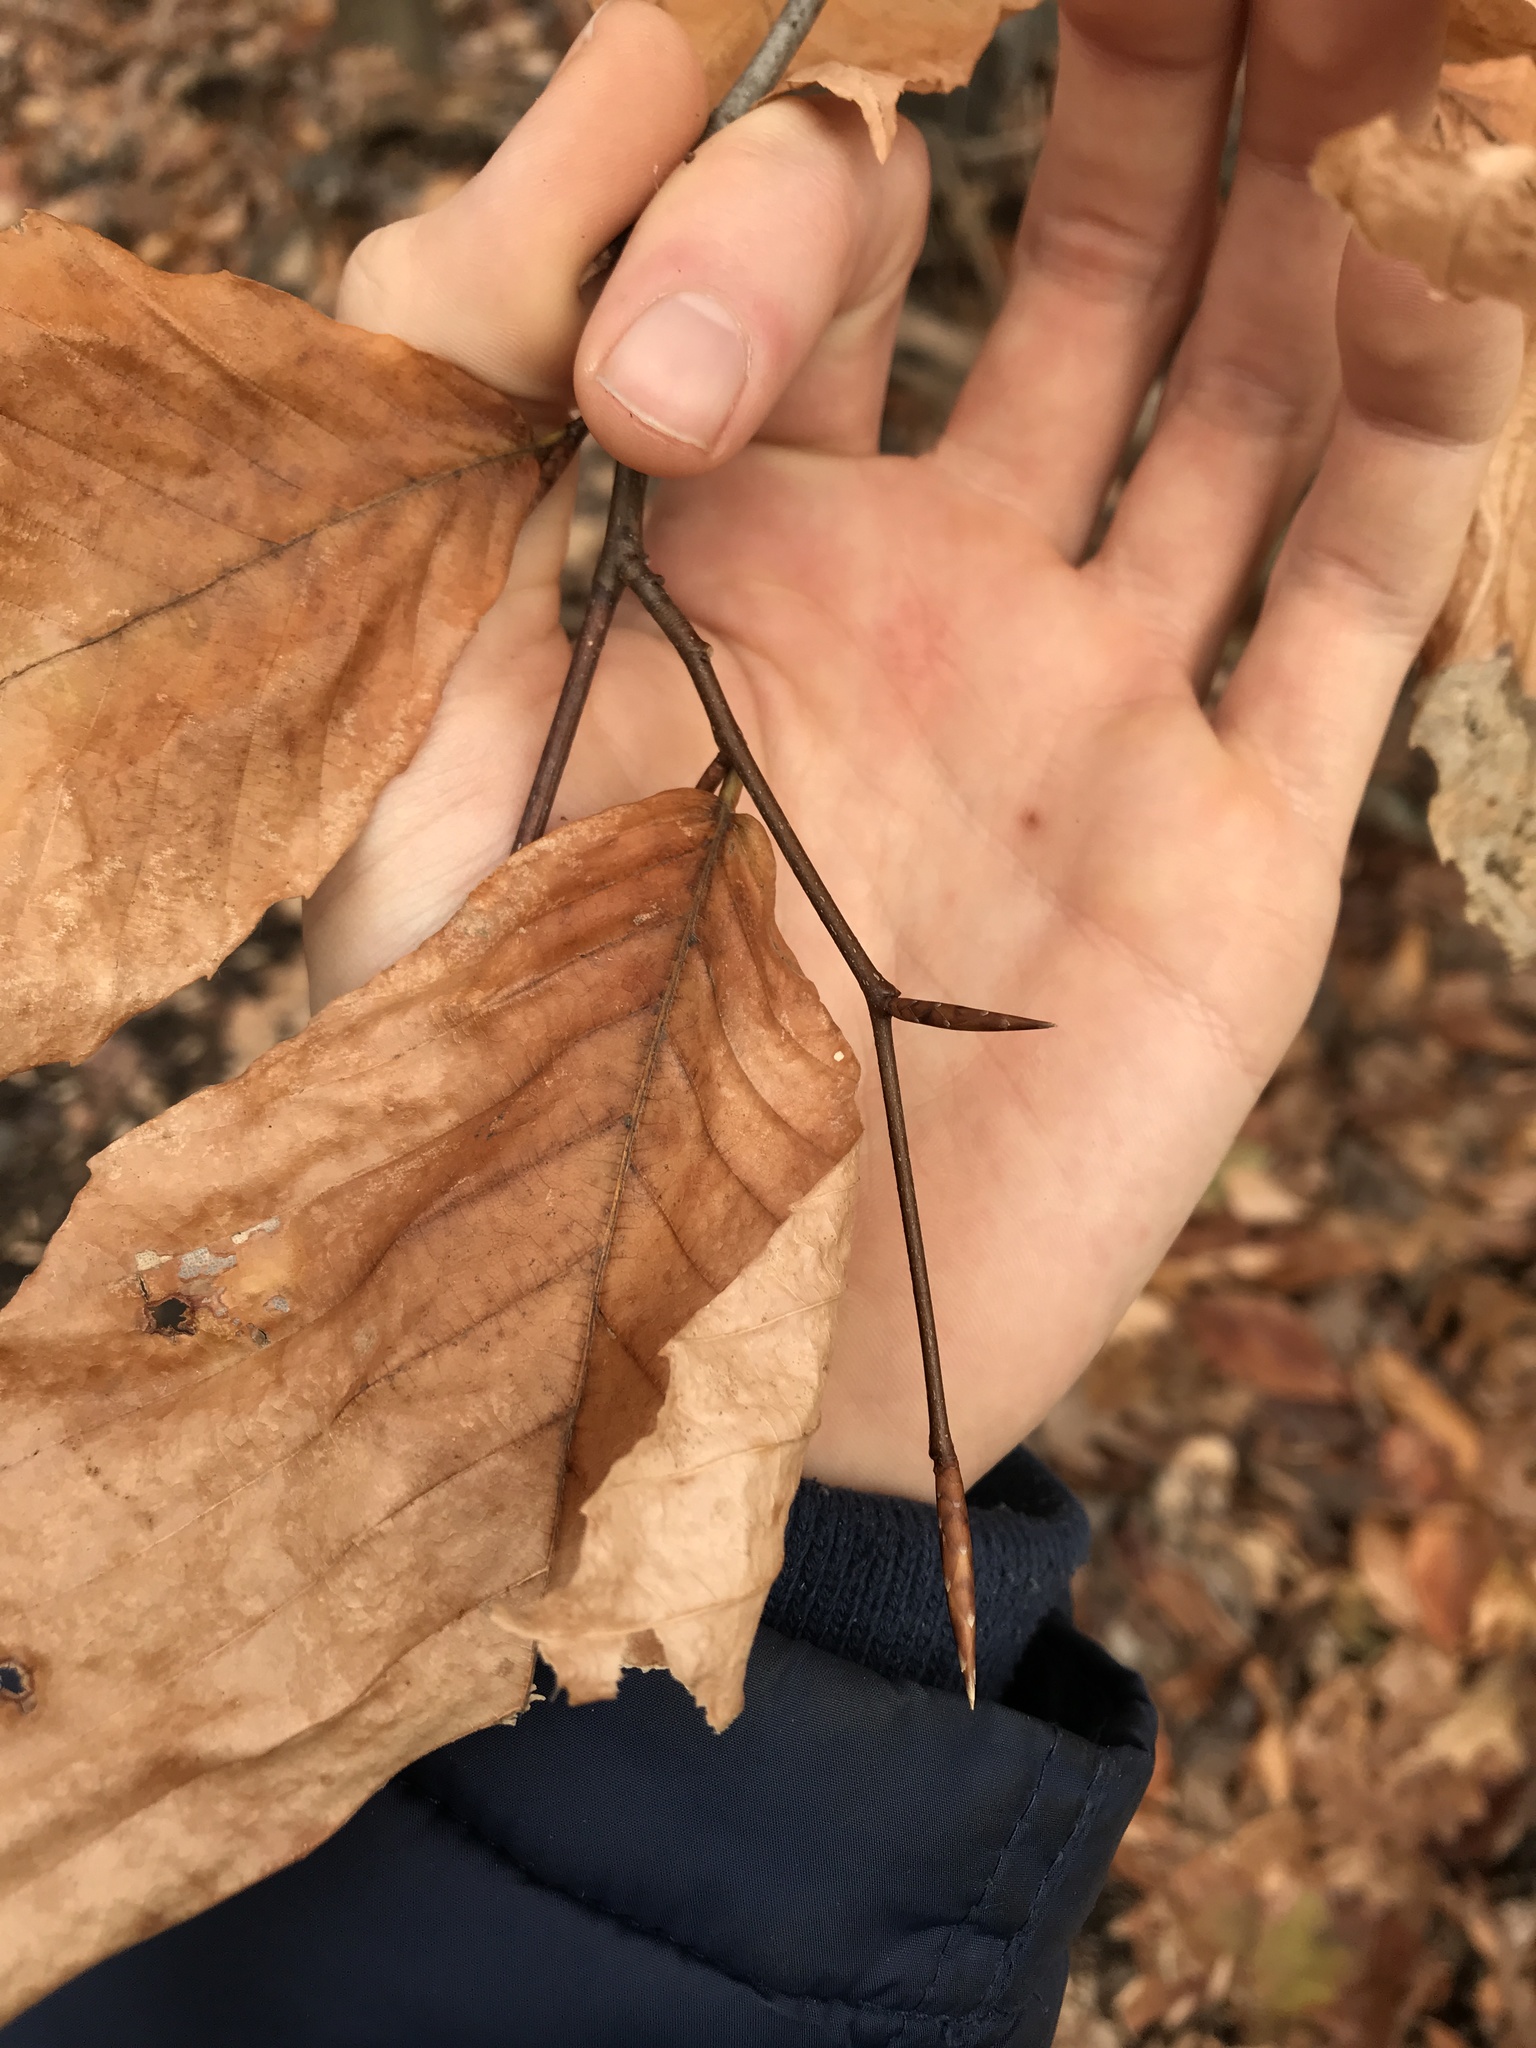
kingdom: Plantae
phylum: Tracheophyta
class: Magnoliopsida
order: Fagales
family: Fagaceae
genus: Fagus
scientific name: Fagus grandifolia
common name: American beech
